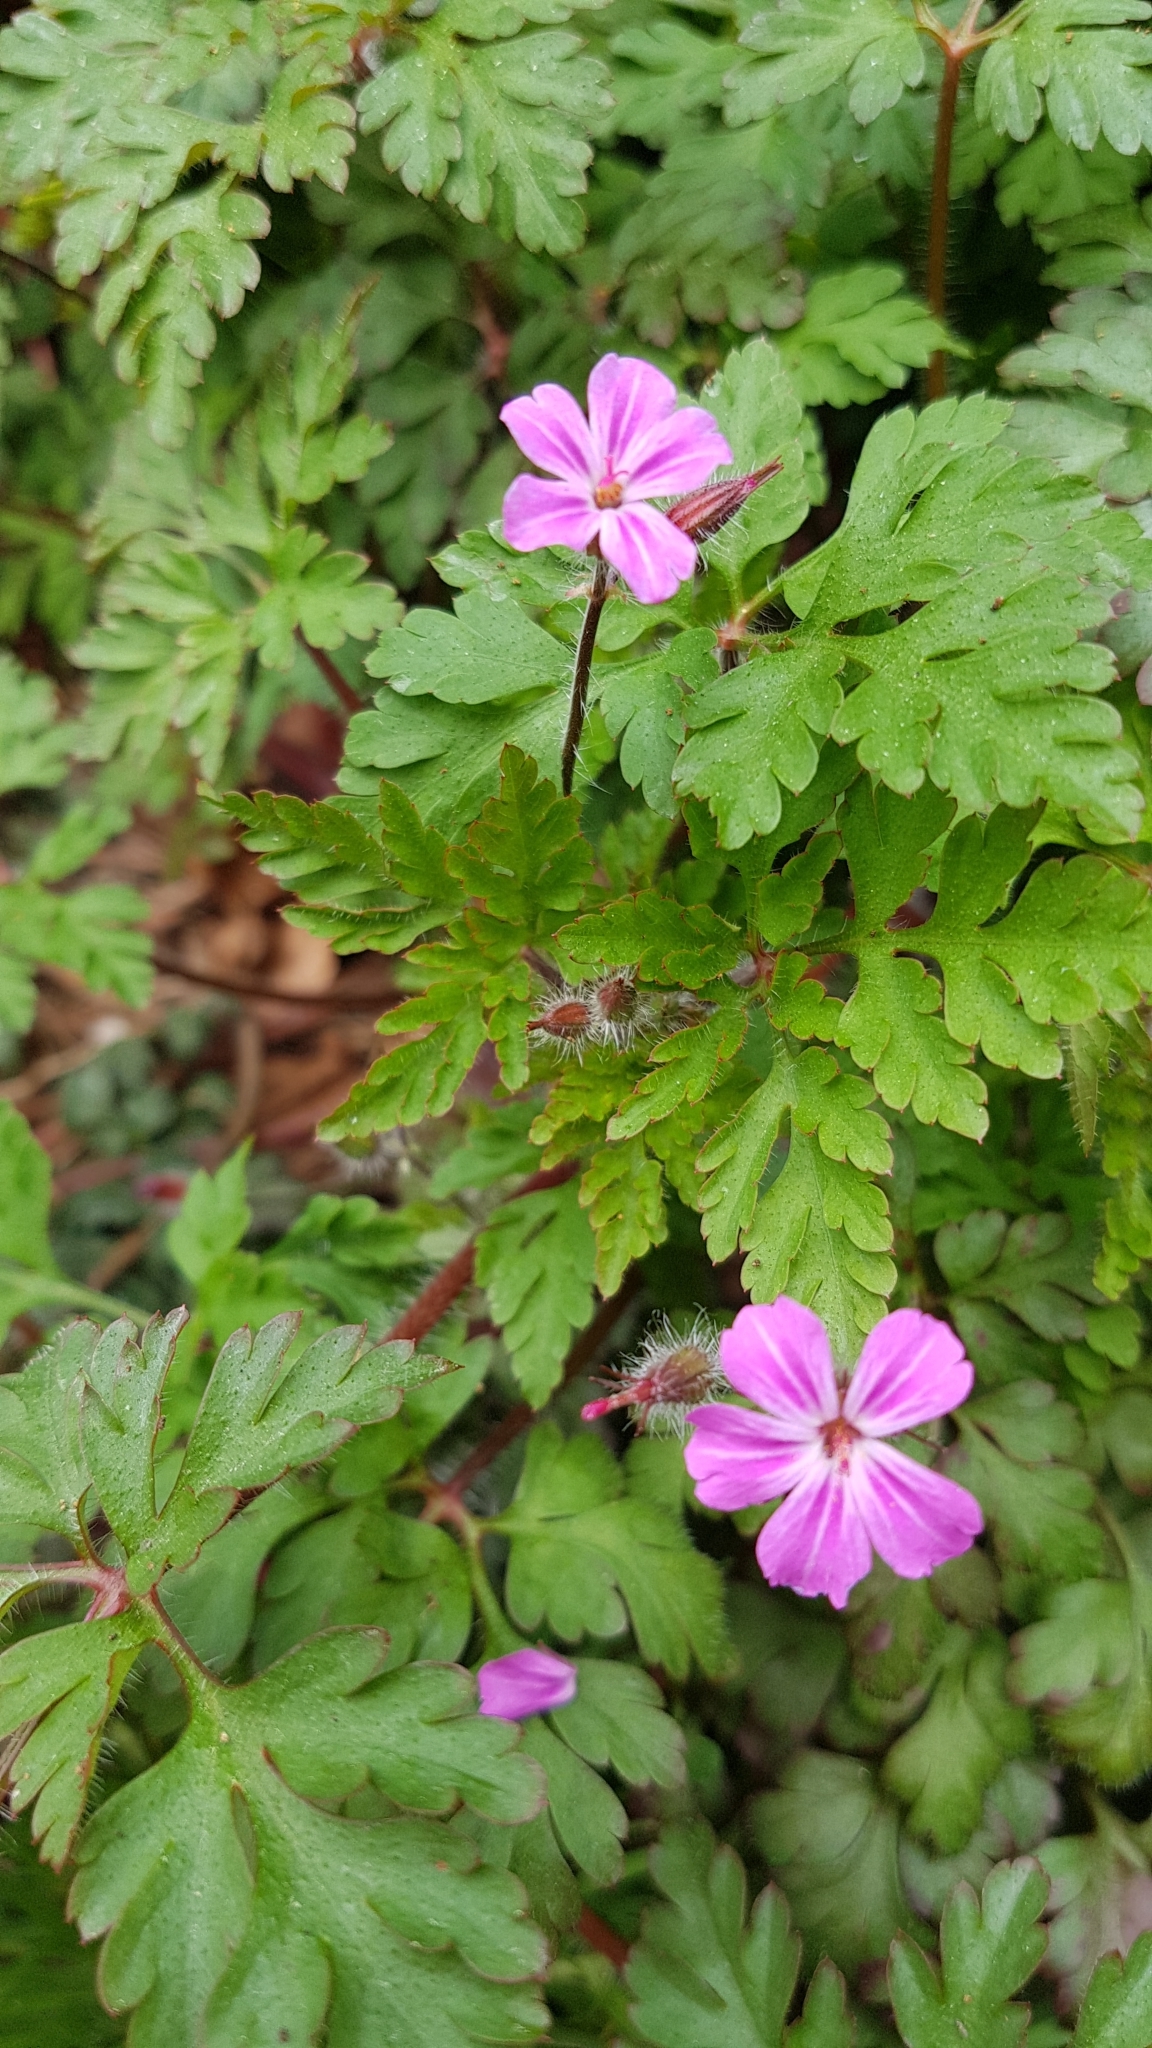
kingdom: Plantae
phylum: Tracheophyta
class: Magnoliopsida
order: Geraniales
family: Geraniaceae
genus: Geranium
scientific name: Geranium robertianum
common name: Herb-robert
